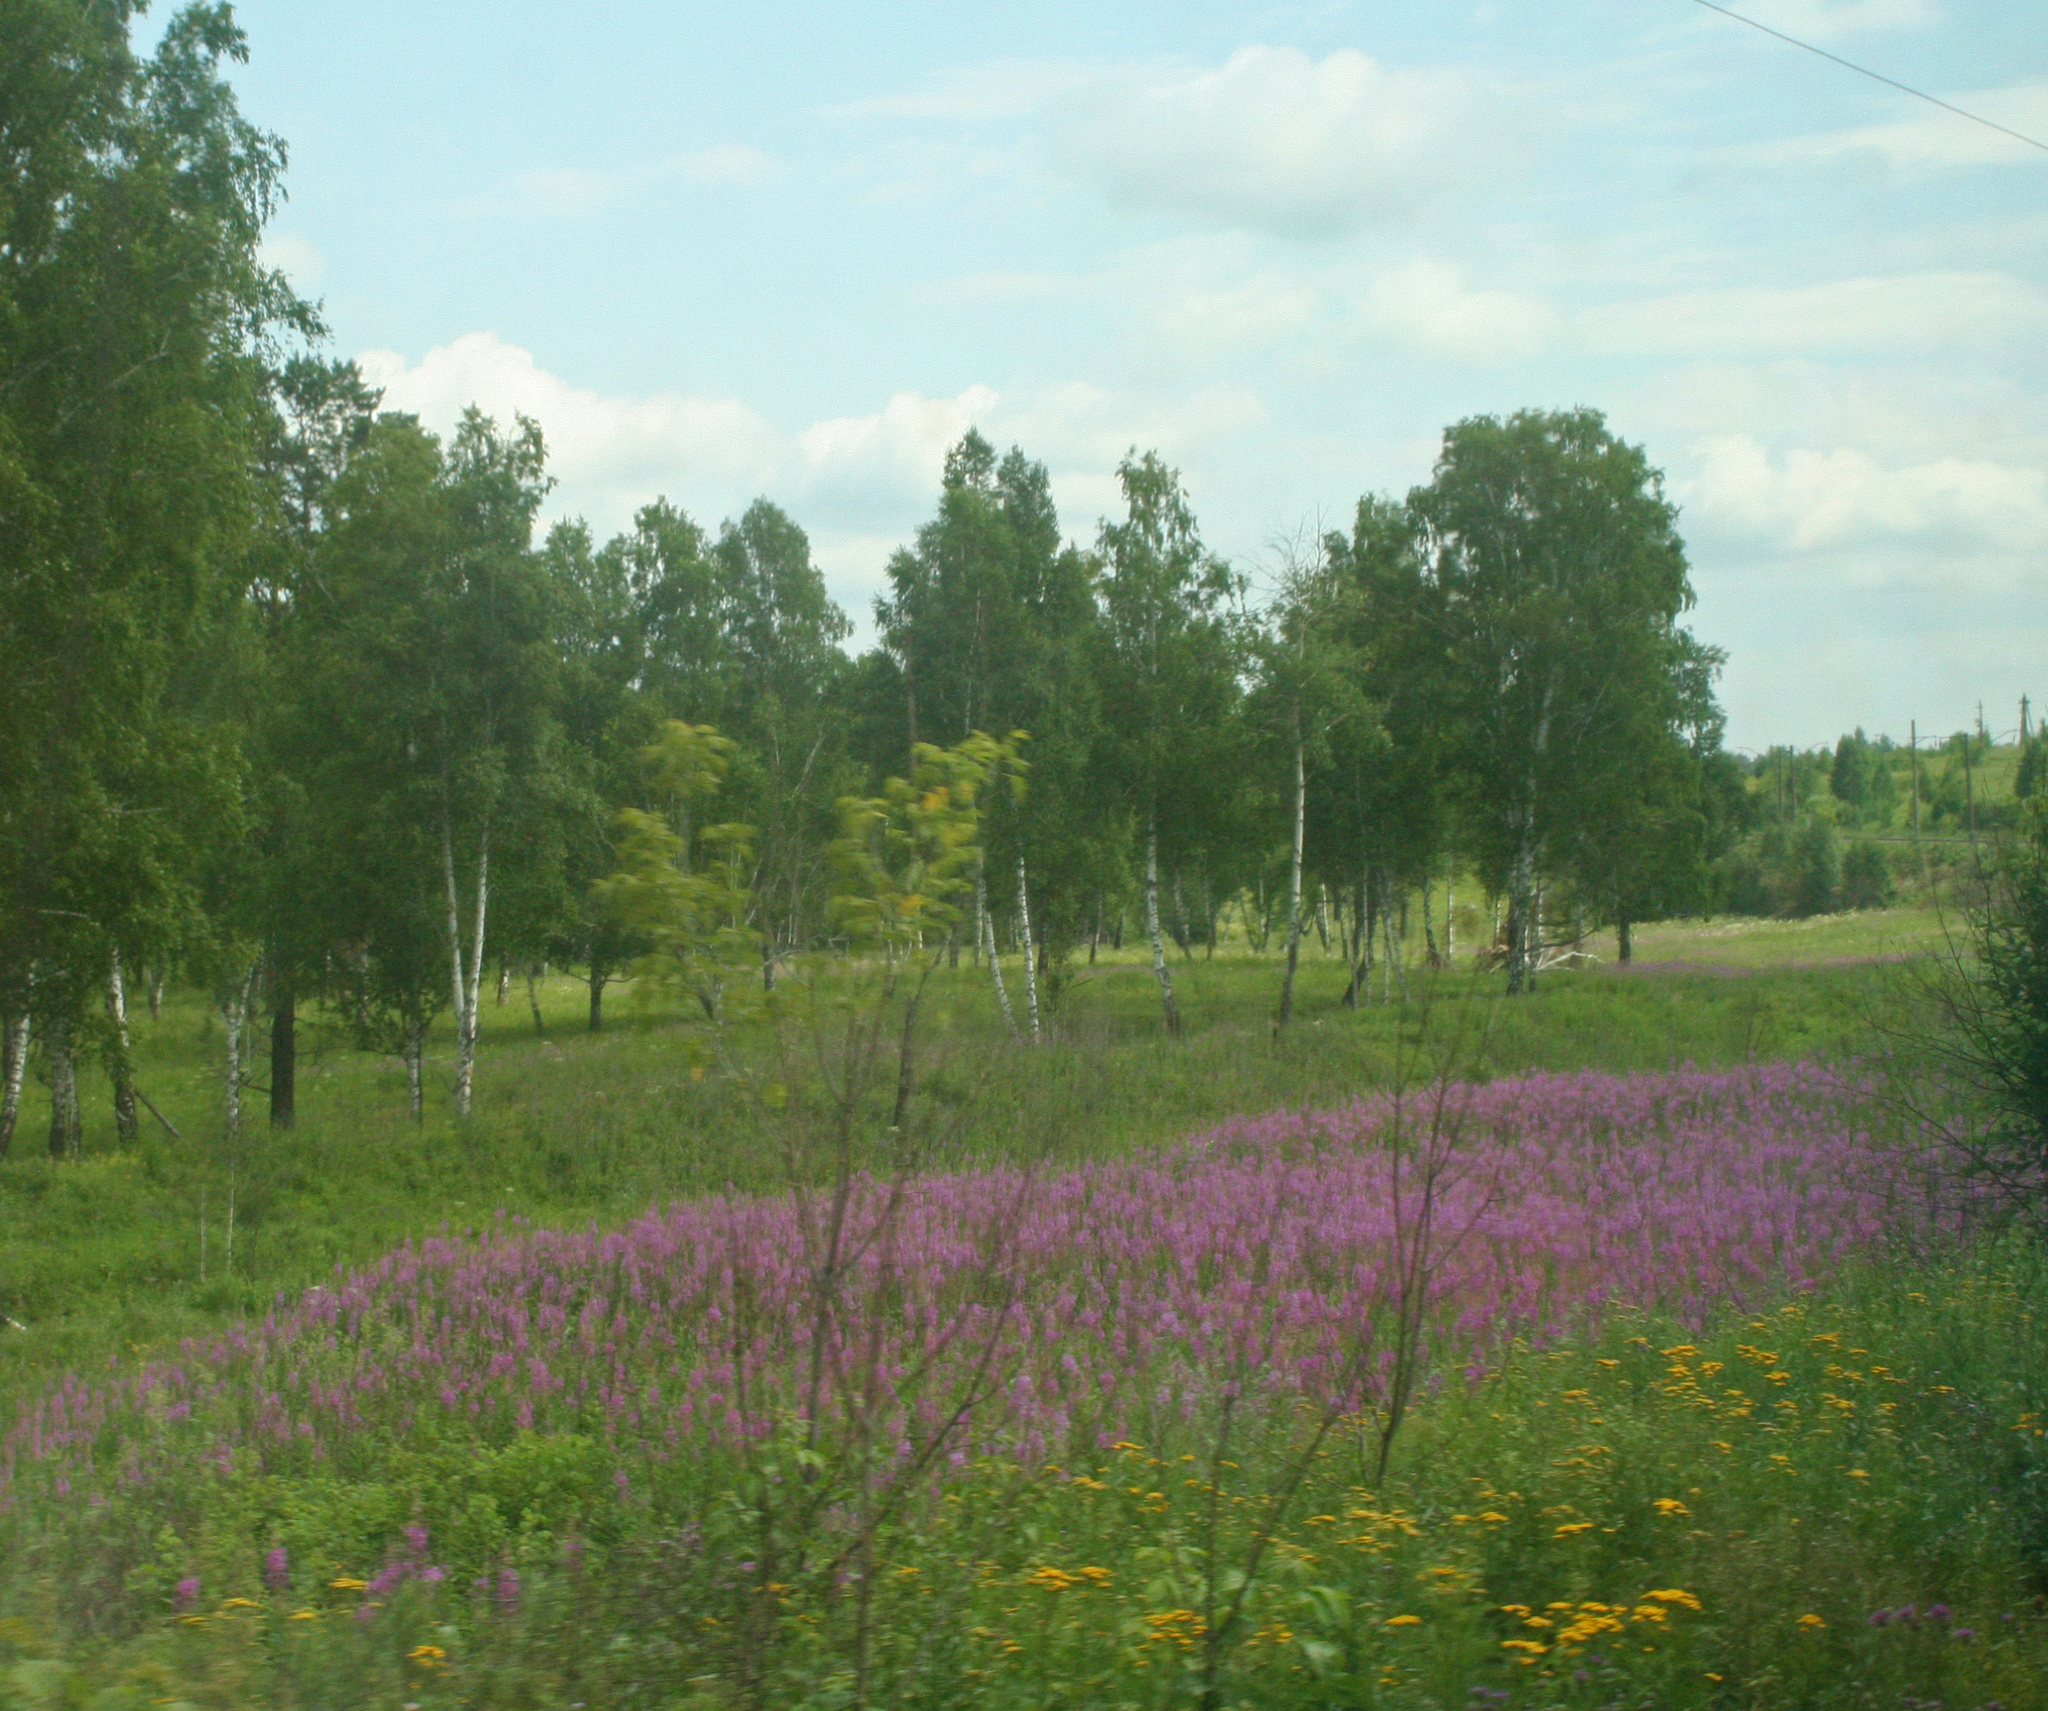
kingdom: Plantae
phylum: Tracheophyta
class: Magnoliopsida
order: Myrtales
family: Onagraceae
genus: Chamaenerion
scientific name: Chamaenerion angustifolium
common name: Fireweed
